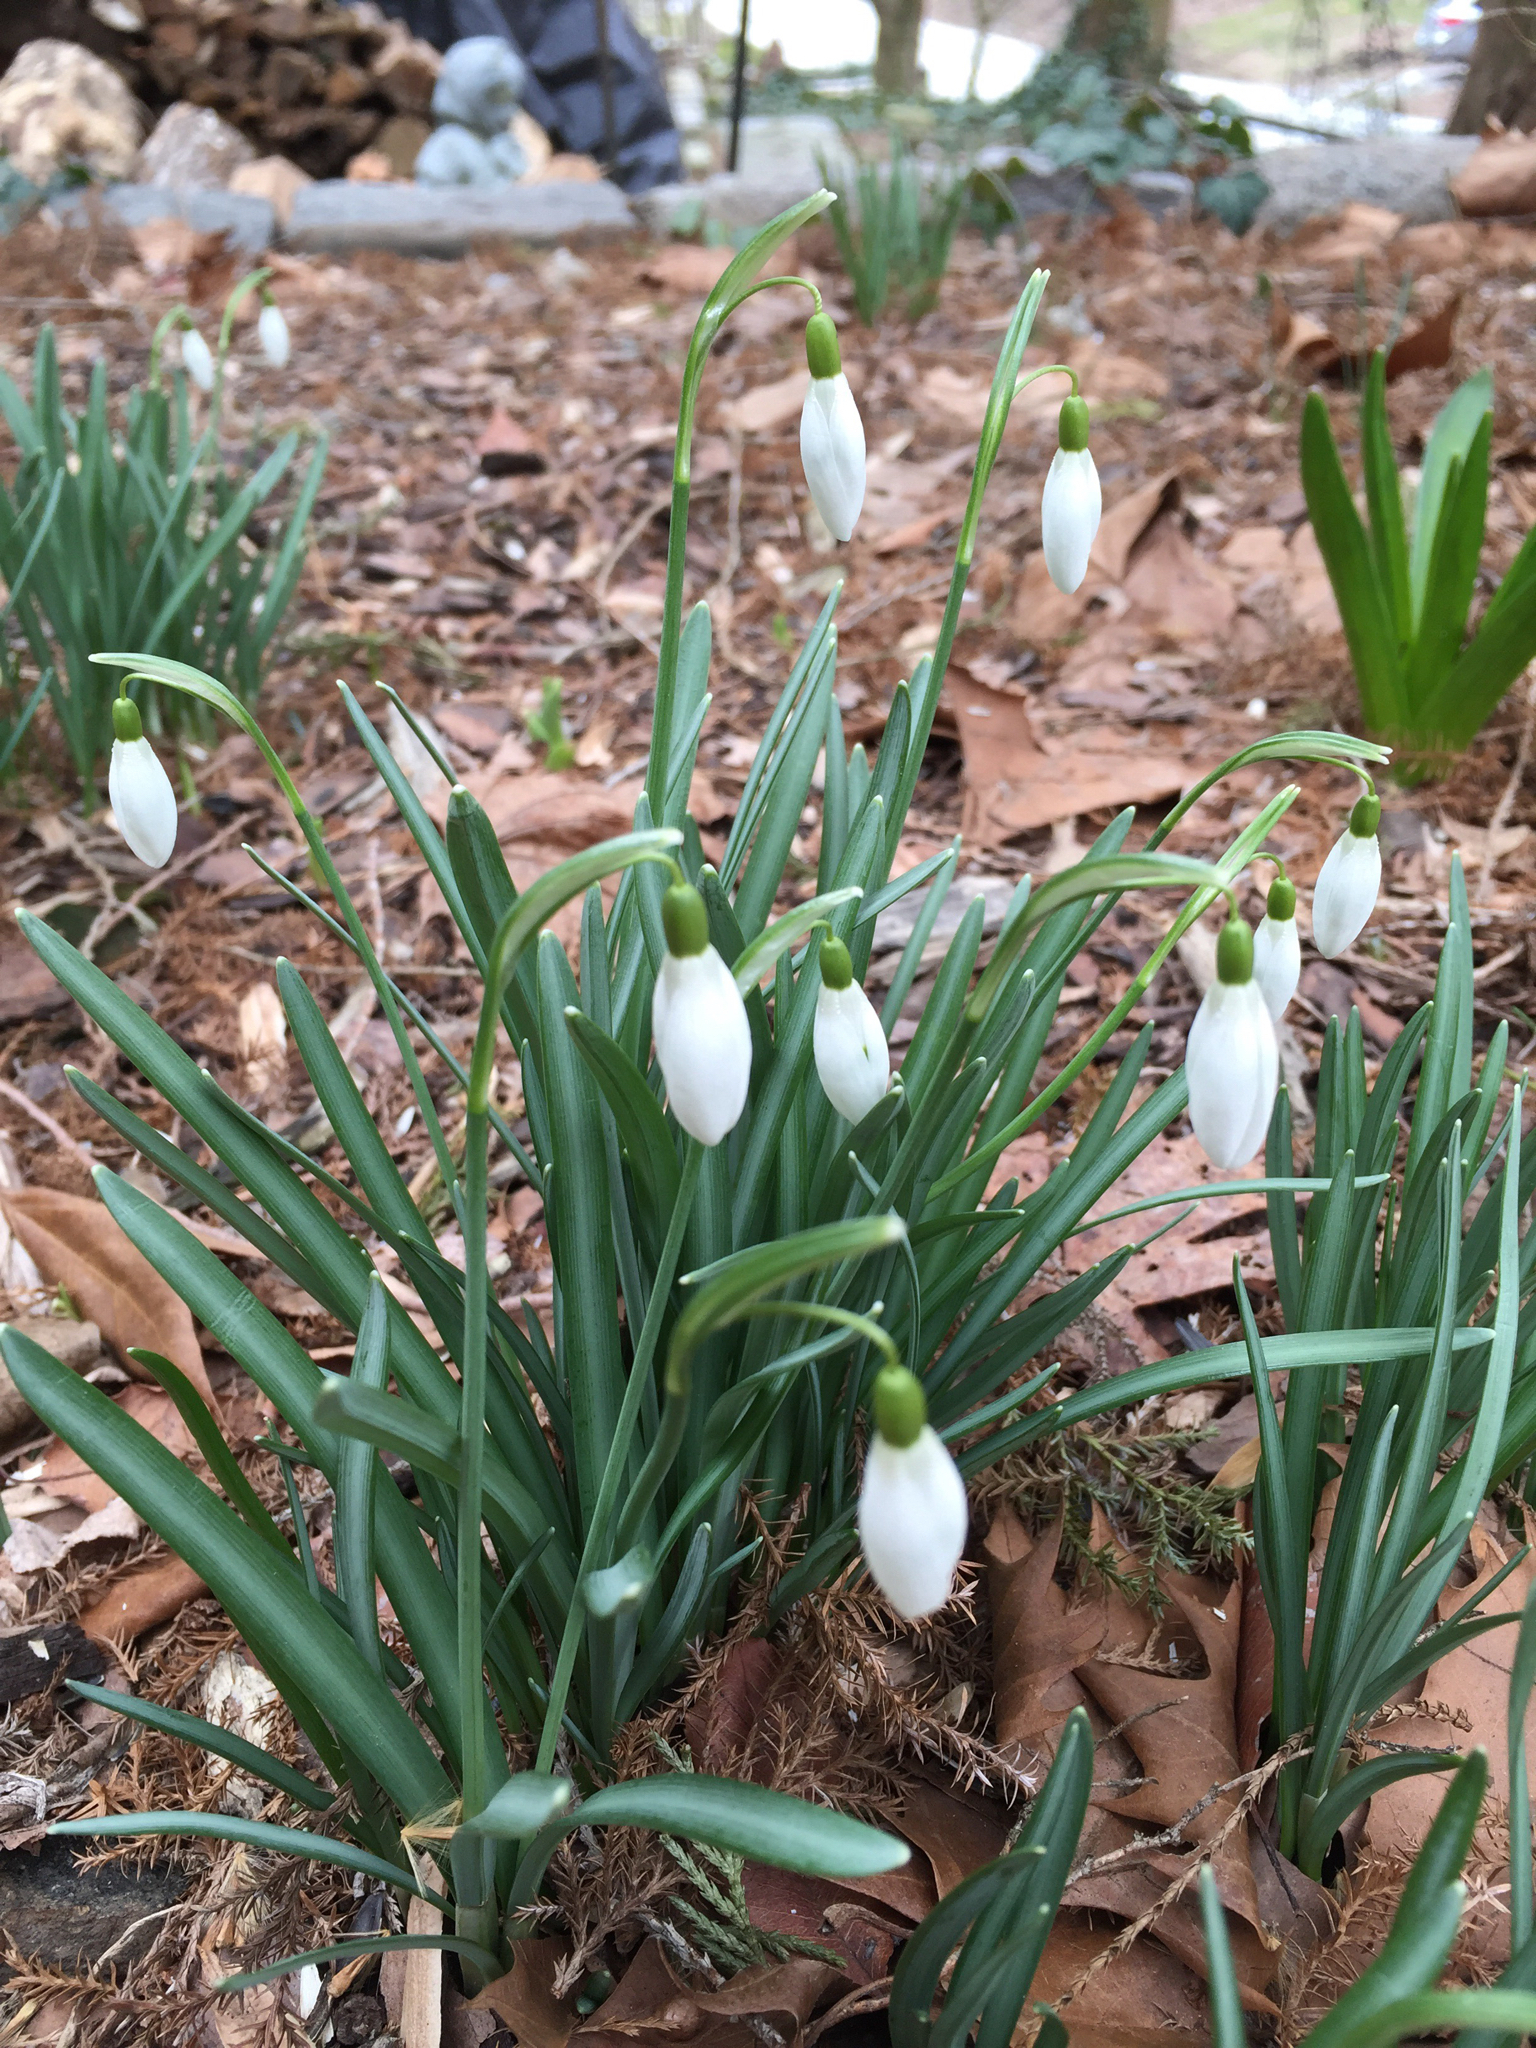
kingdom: Plantae
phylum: Tracheophyta
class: Liliopsida
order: Asparagales
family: Amaryllidaceae
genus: Galanthus
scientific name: Galanthus nivalis
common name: Snowdrop
